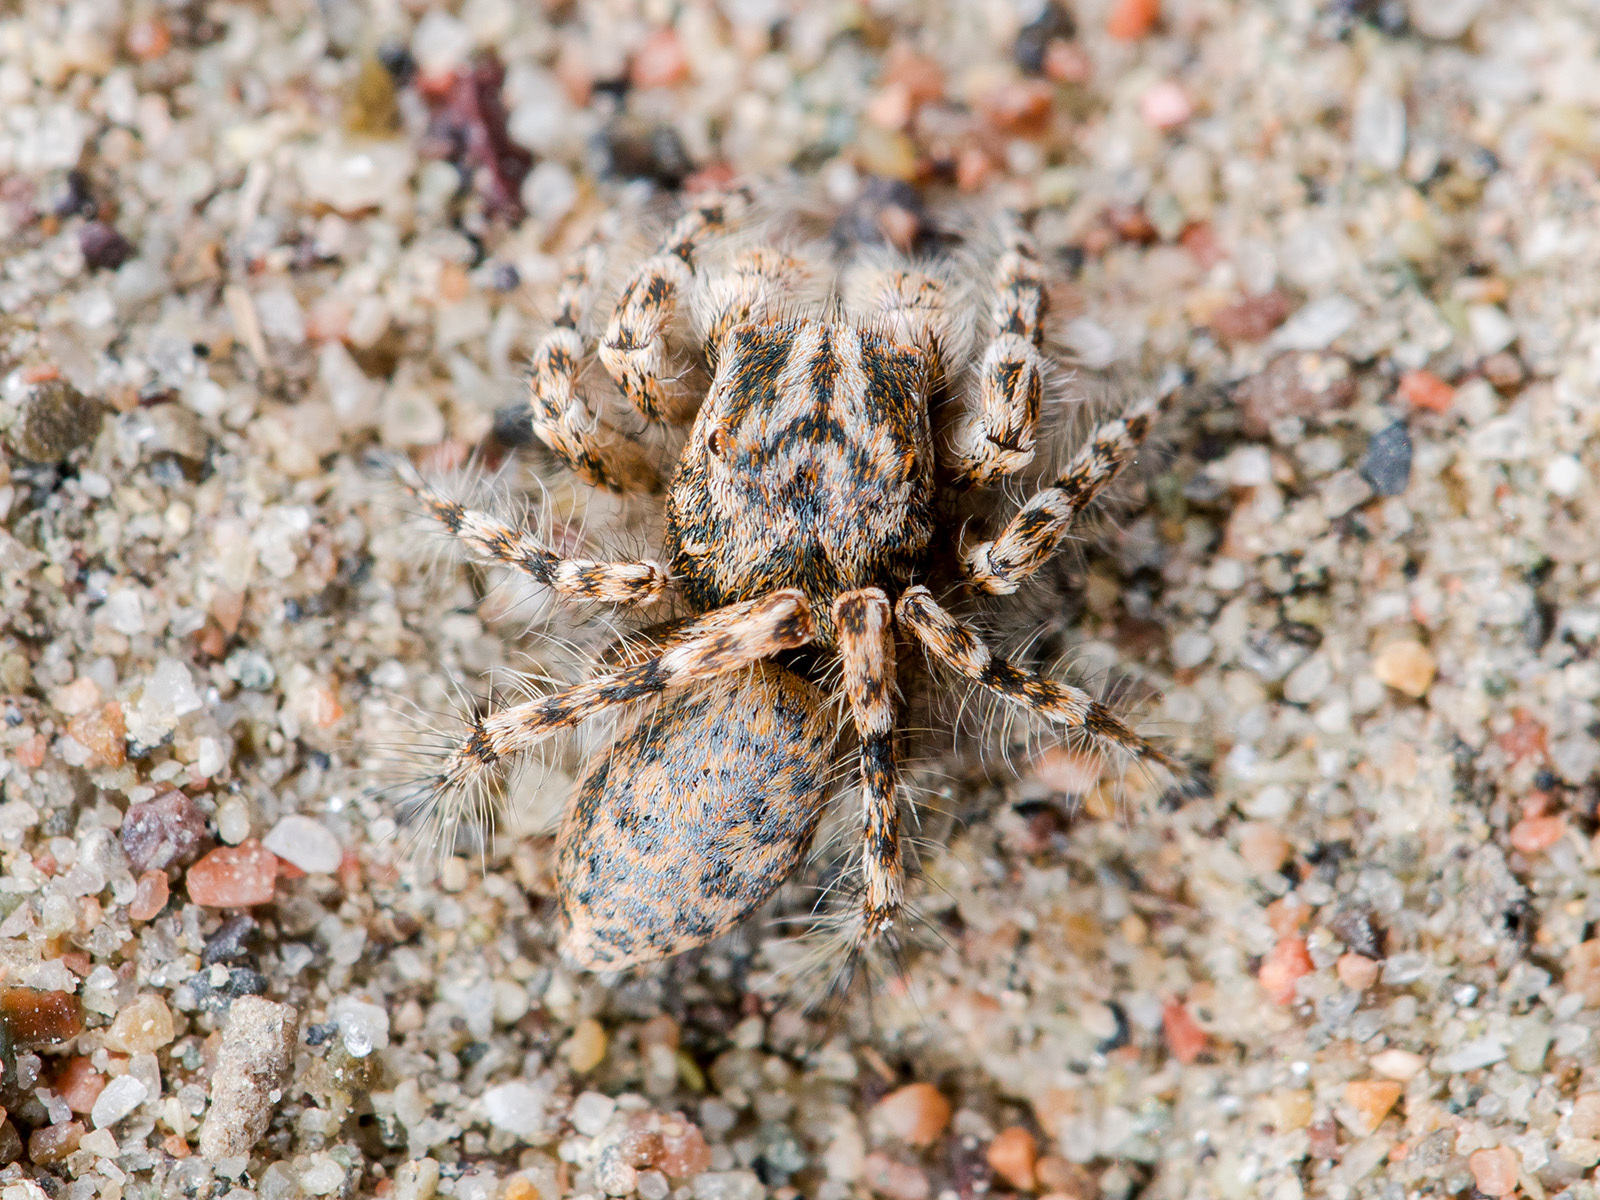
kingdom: Animalia
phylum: Arthropoda
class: Arachnida
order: Araneae
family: Salticidae
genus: Yllenus
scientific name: Yllenus uiguricus
